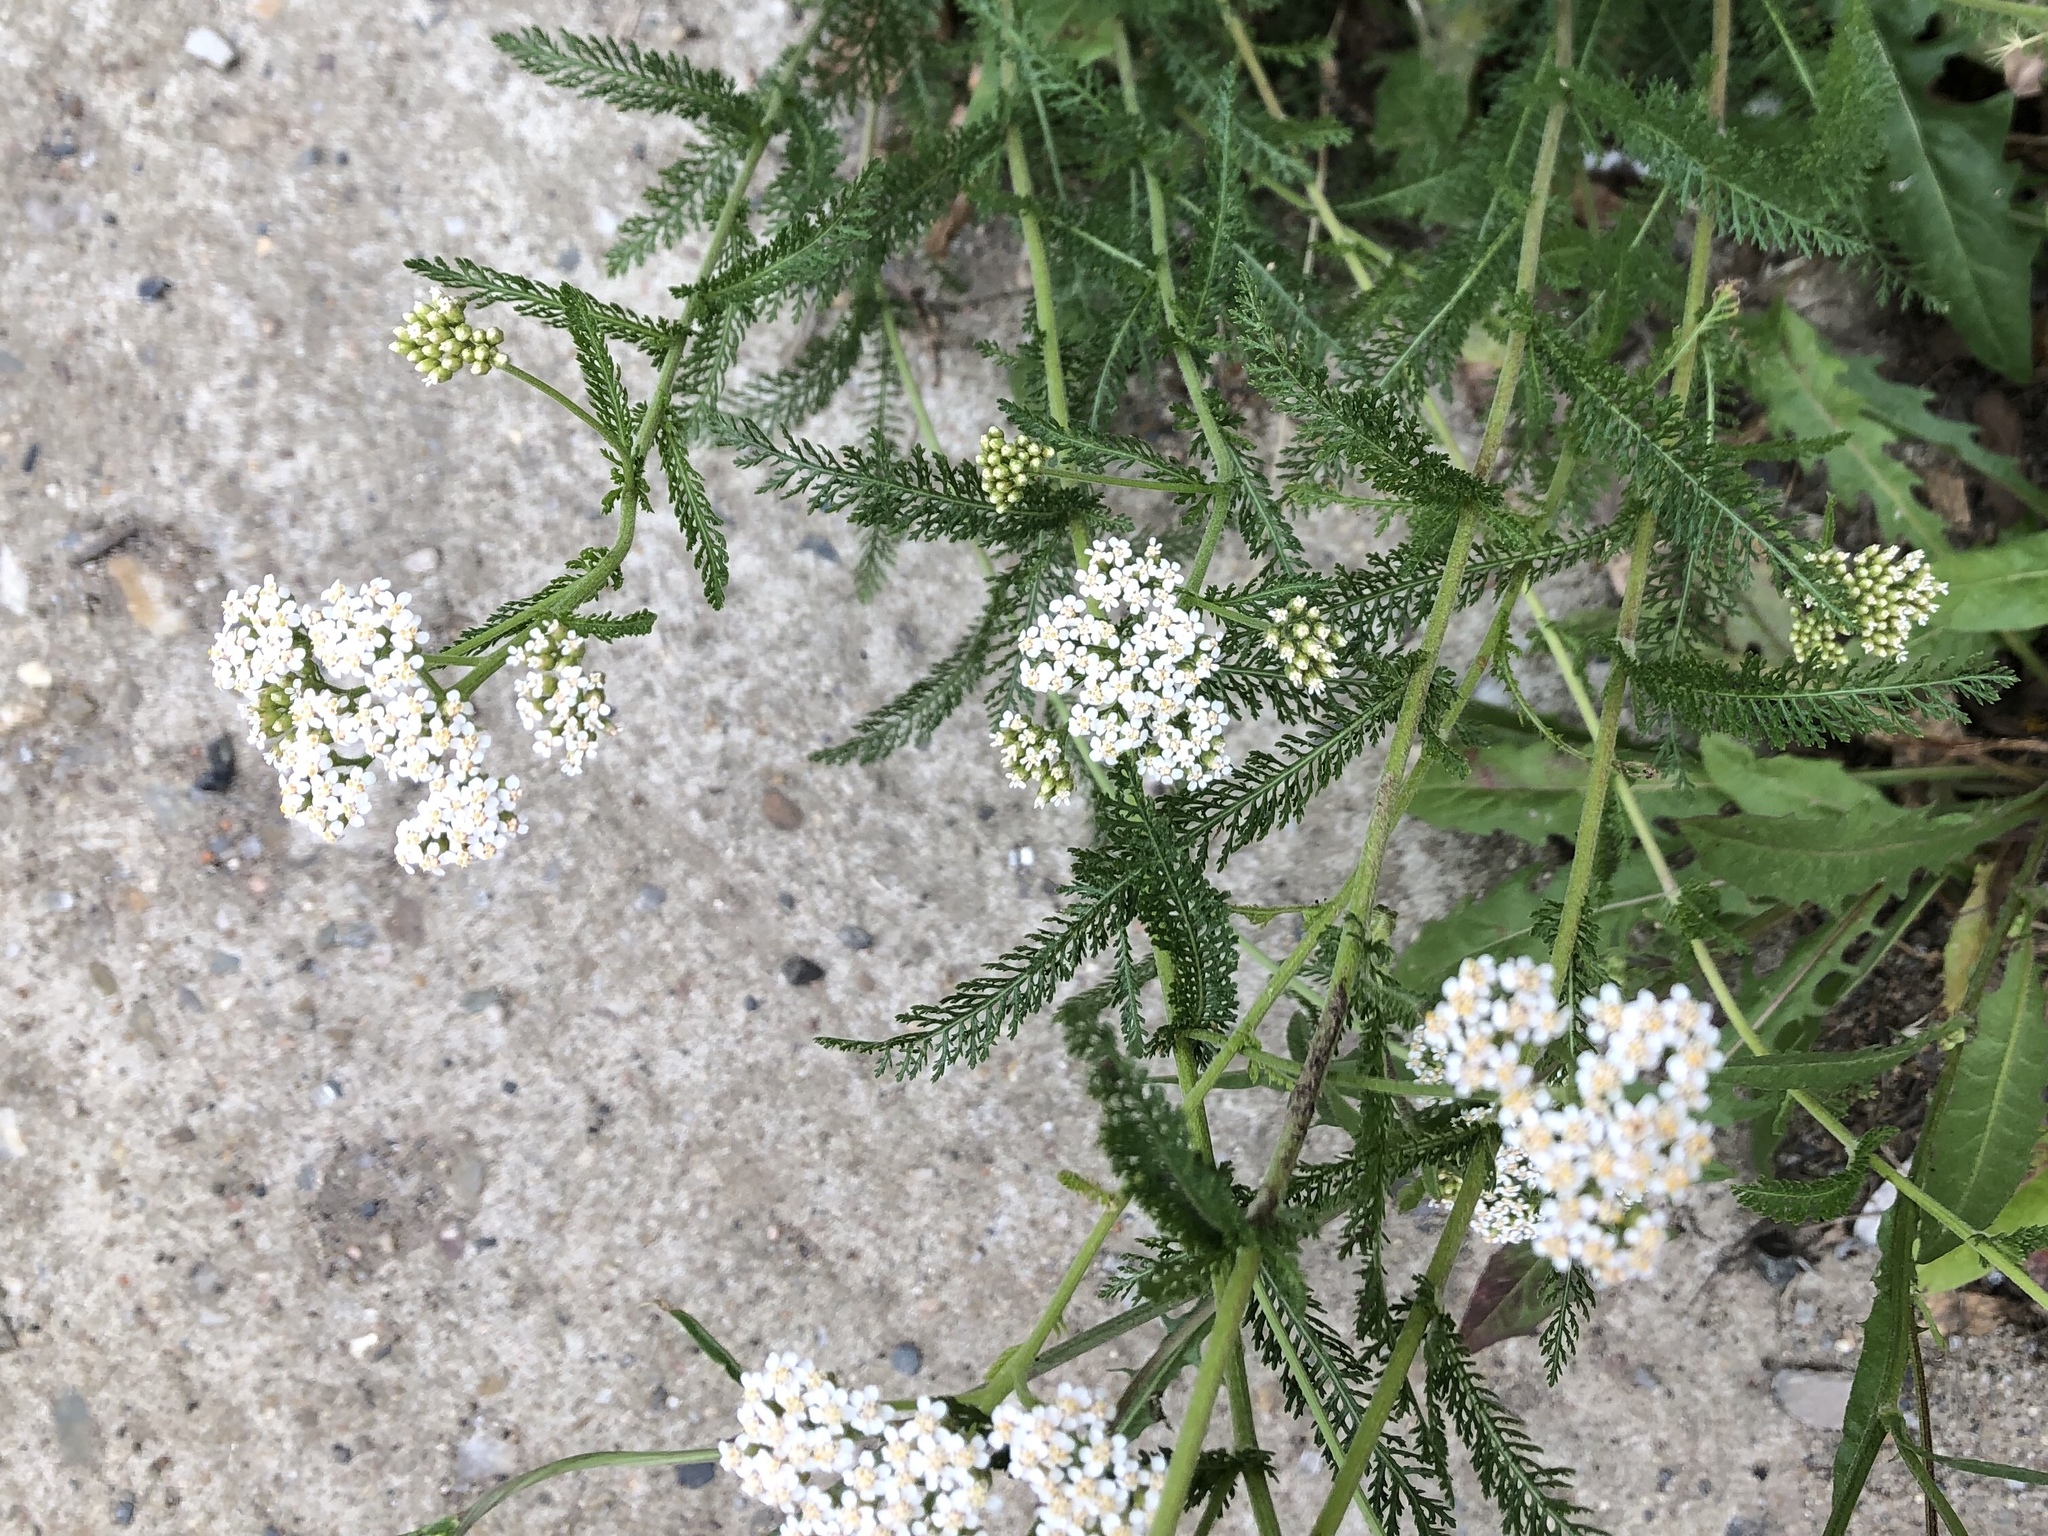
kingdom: Plantae
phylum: Tracheophyta
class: Magnoliopsida
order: Asterales
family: Asteraceae
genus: Achillea
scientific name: Achillea millefolium
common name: Yarrow
